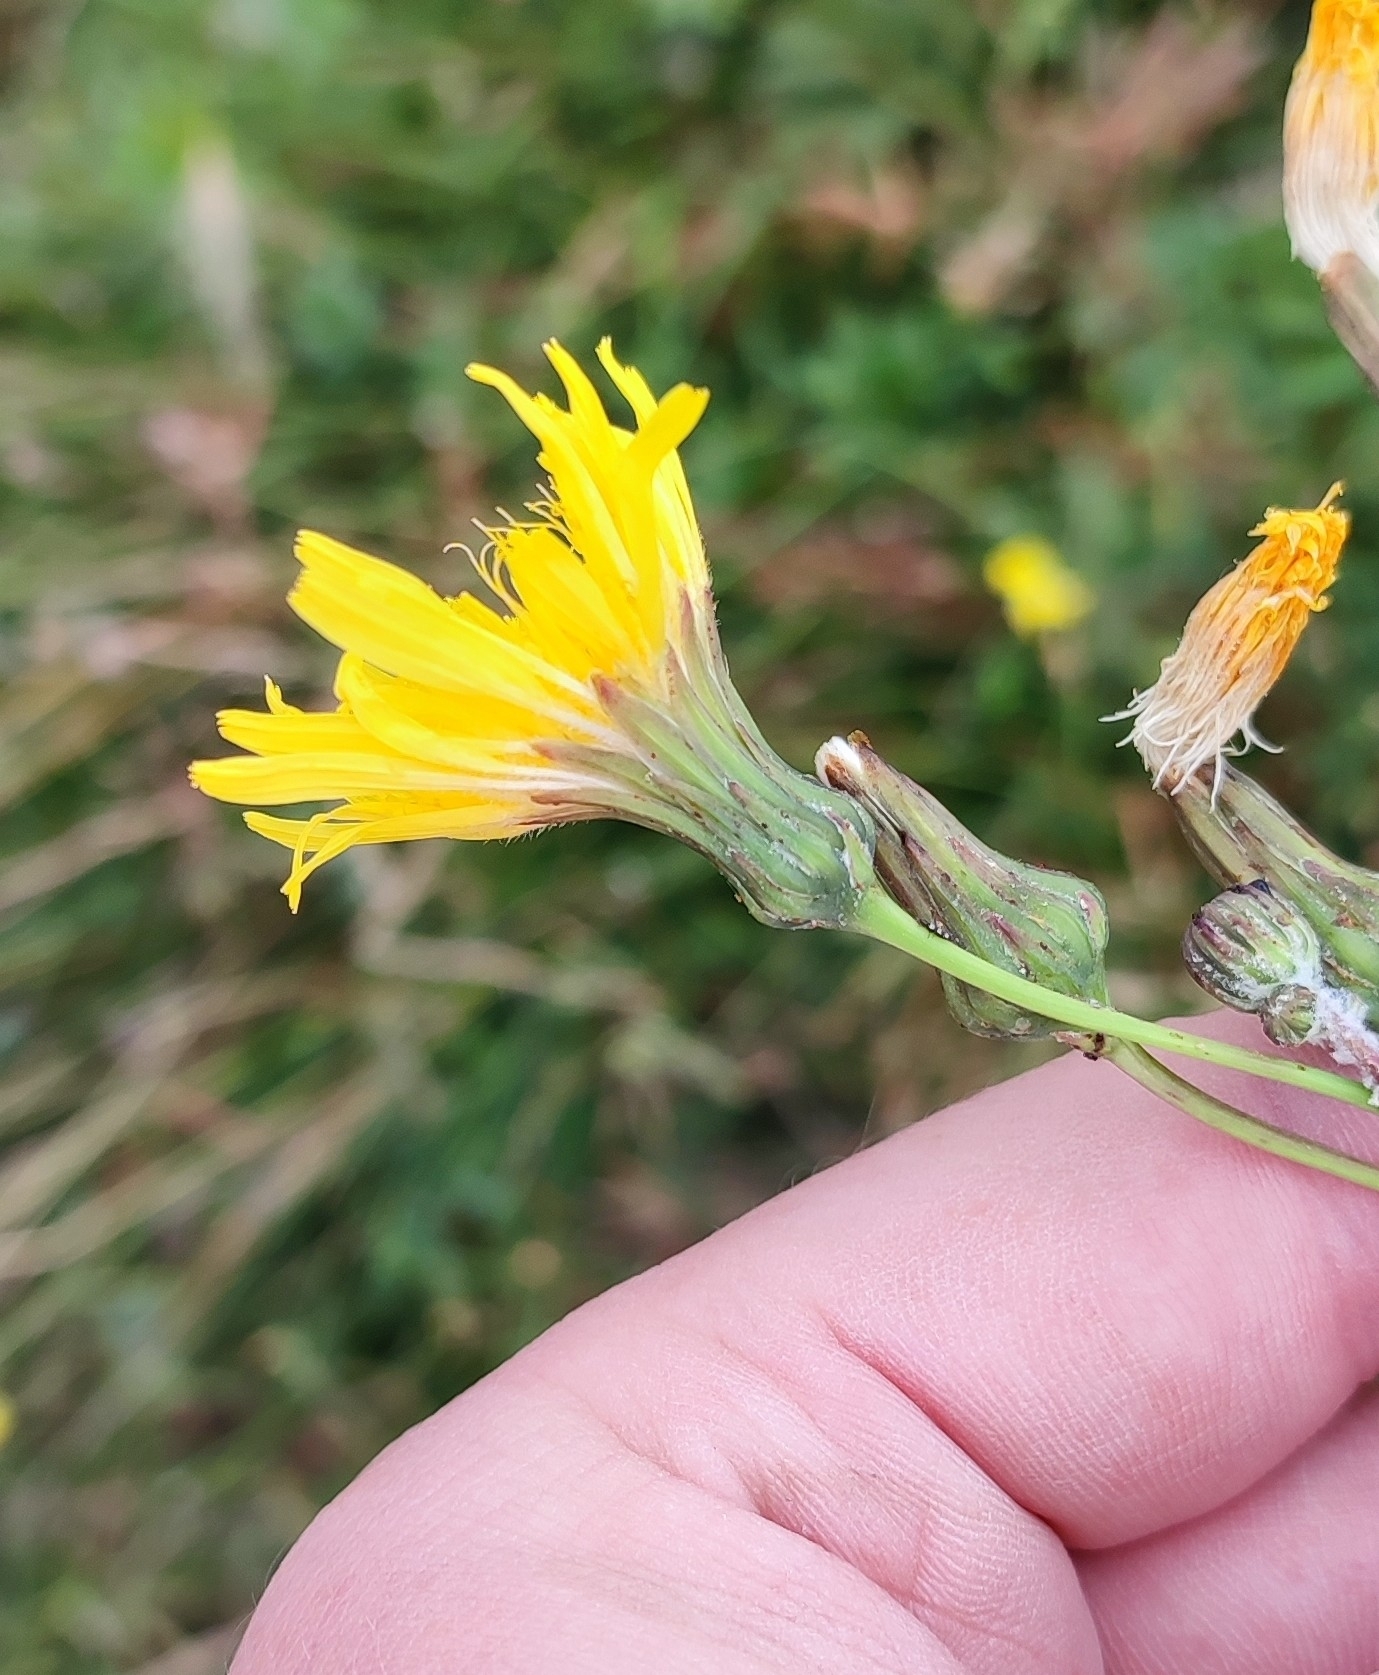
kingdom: Plantae
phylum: Tracheophyta
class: Magnoliopsida
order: Asterales
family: Asteraceae
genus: Sonchus
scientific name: Sonchus arvensis
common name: Perennial sow-thistle
